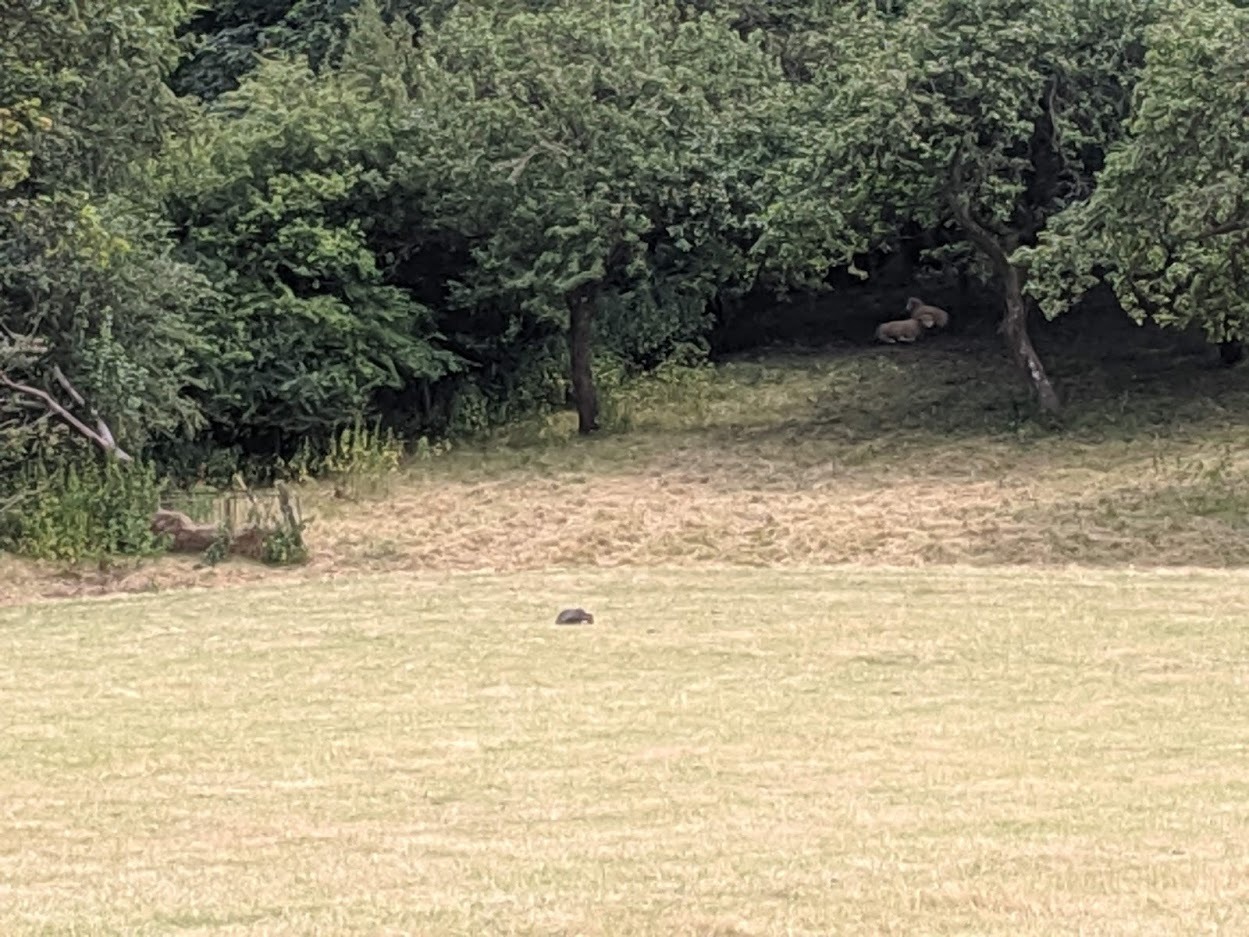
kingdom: Animalia
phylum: Chordata
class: Mammalia
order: Carnivora
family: Mustelidae
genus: Meles
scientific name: Meles meles
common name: Eurasian badger
